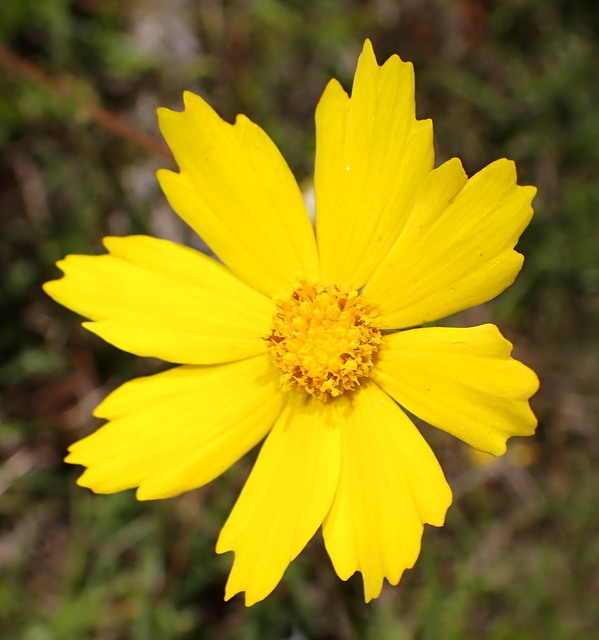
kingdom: Plantae
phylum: Tracheophyta
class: Magnoliopsida
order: Asterales
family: Asteraceae
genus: Coreopsis
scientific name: Coreopsis lanceolata
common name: Garden coreopsis
